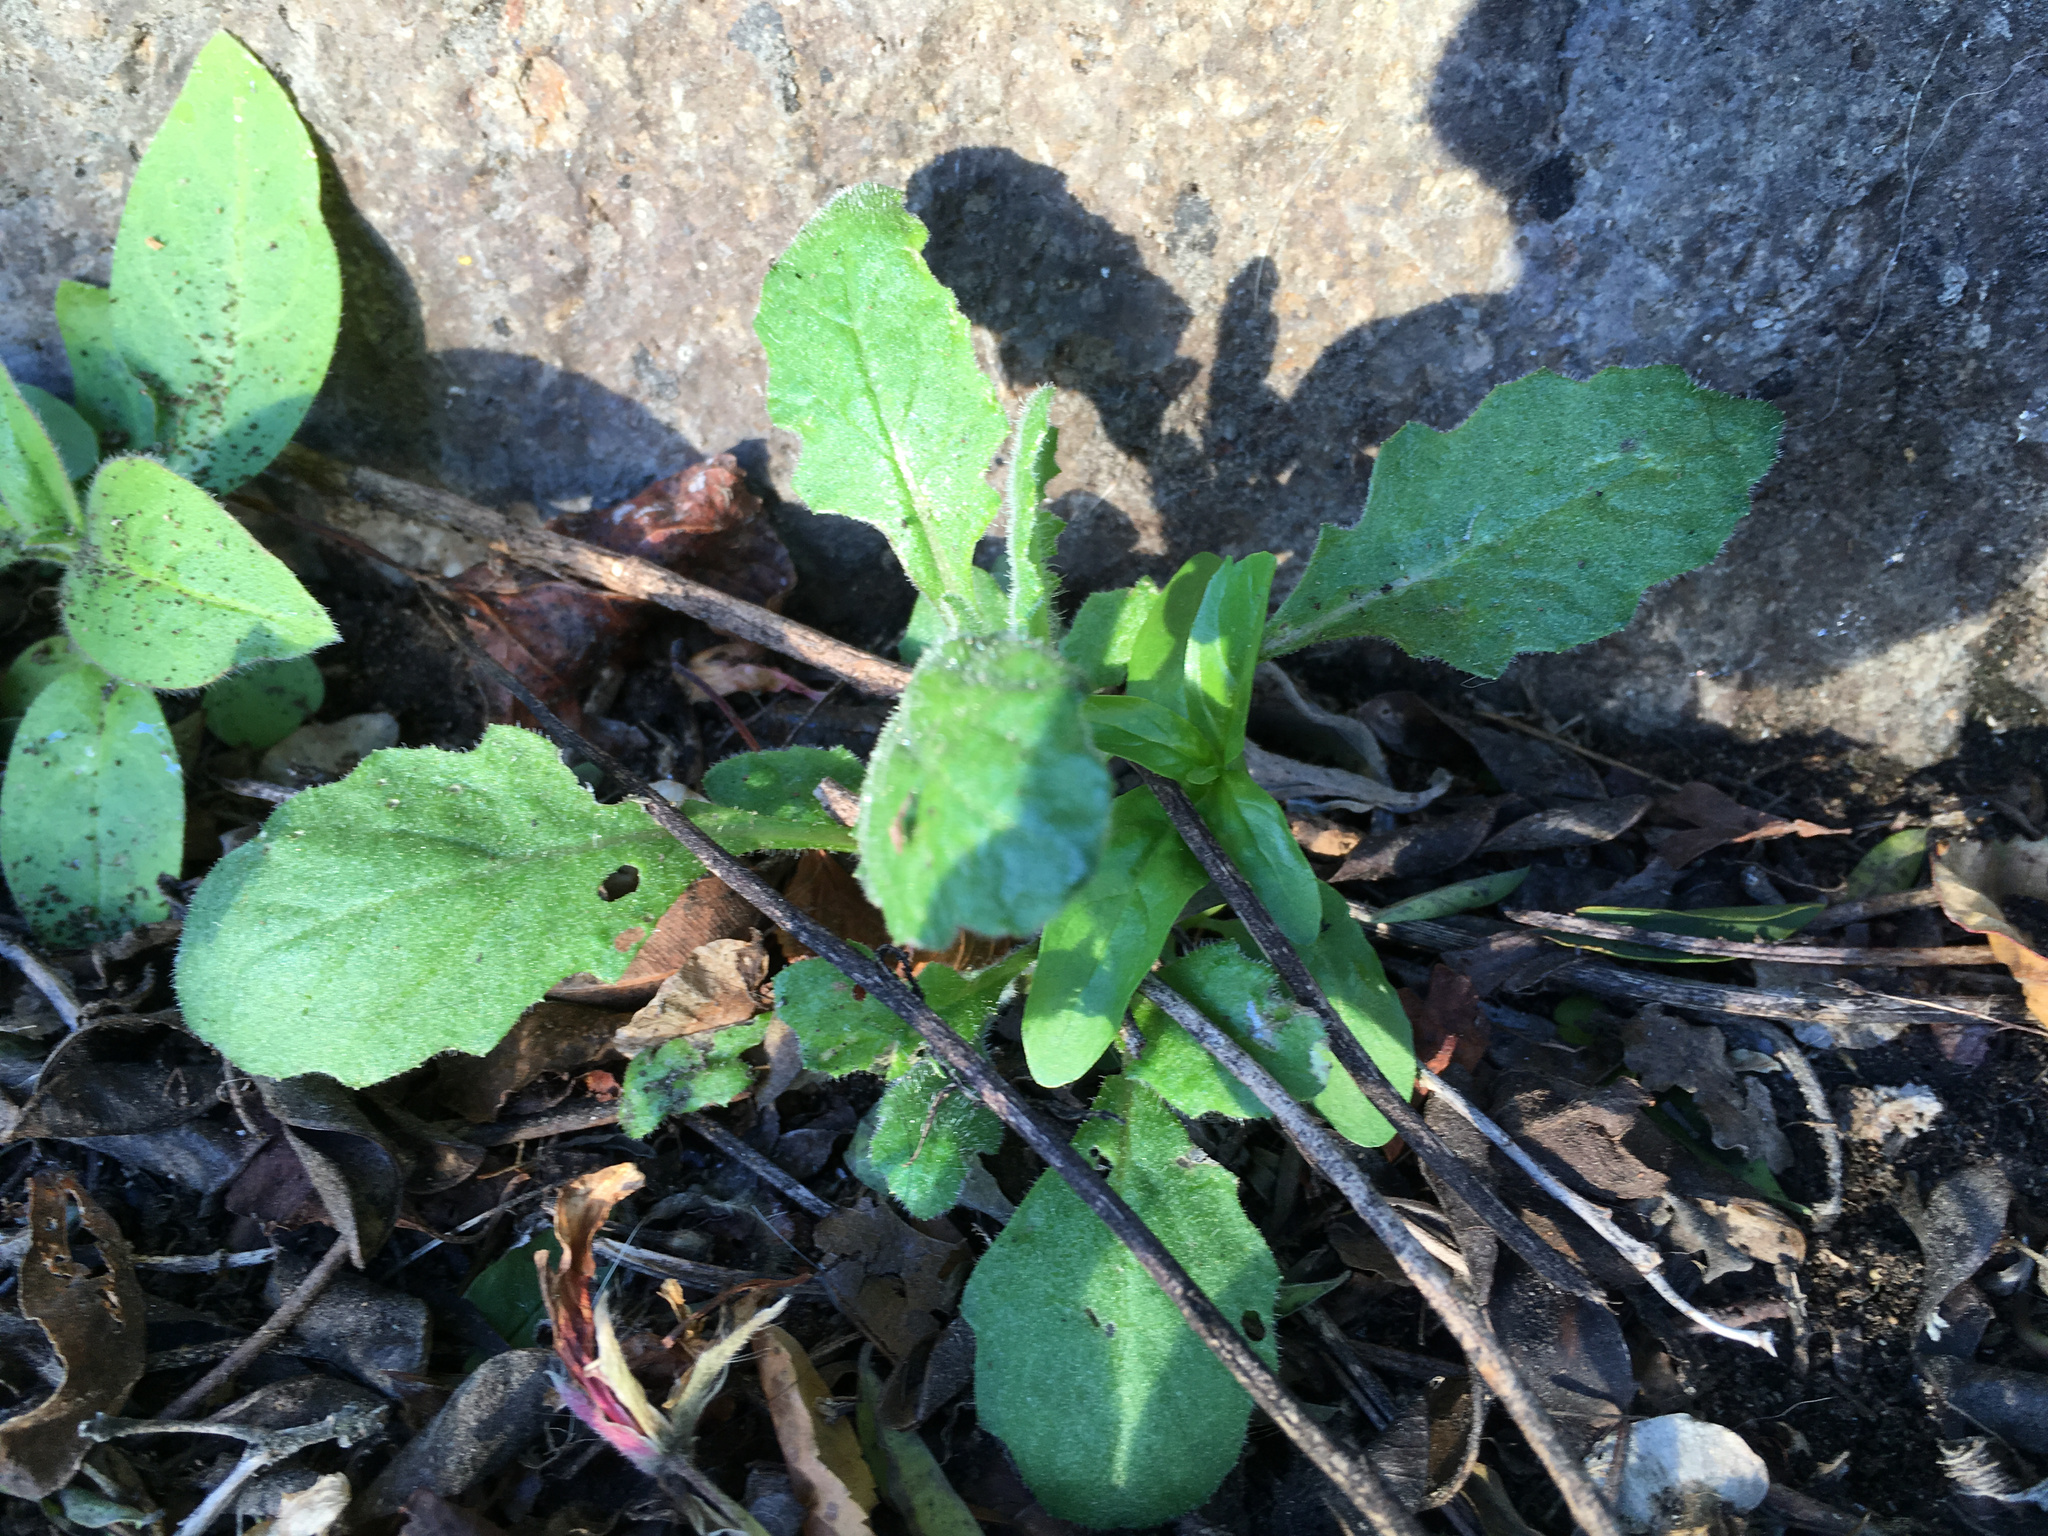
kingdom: Plantae
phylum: Tracheophyta
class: Magnoliopsida
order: Asterales
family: Asteraceae
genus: Senecio
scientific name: Senecio glomeratus
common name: Cutleaf burnweed
